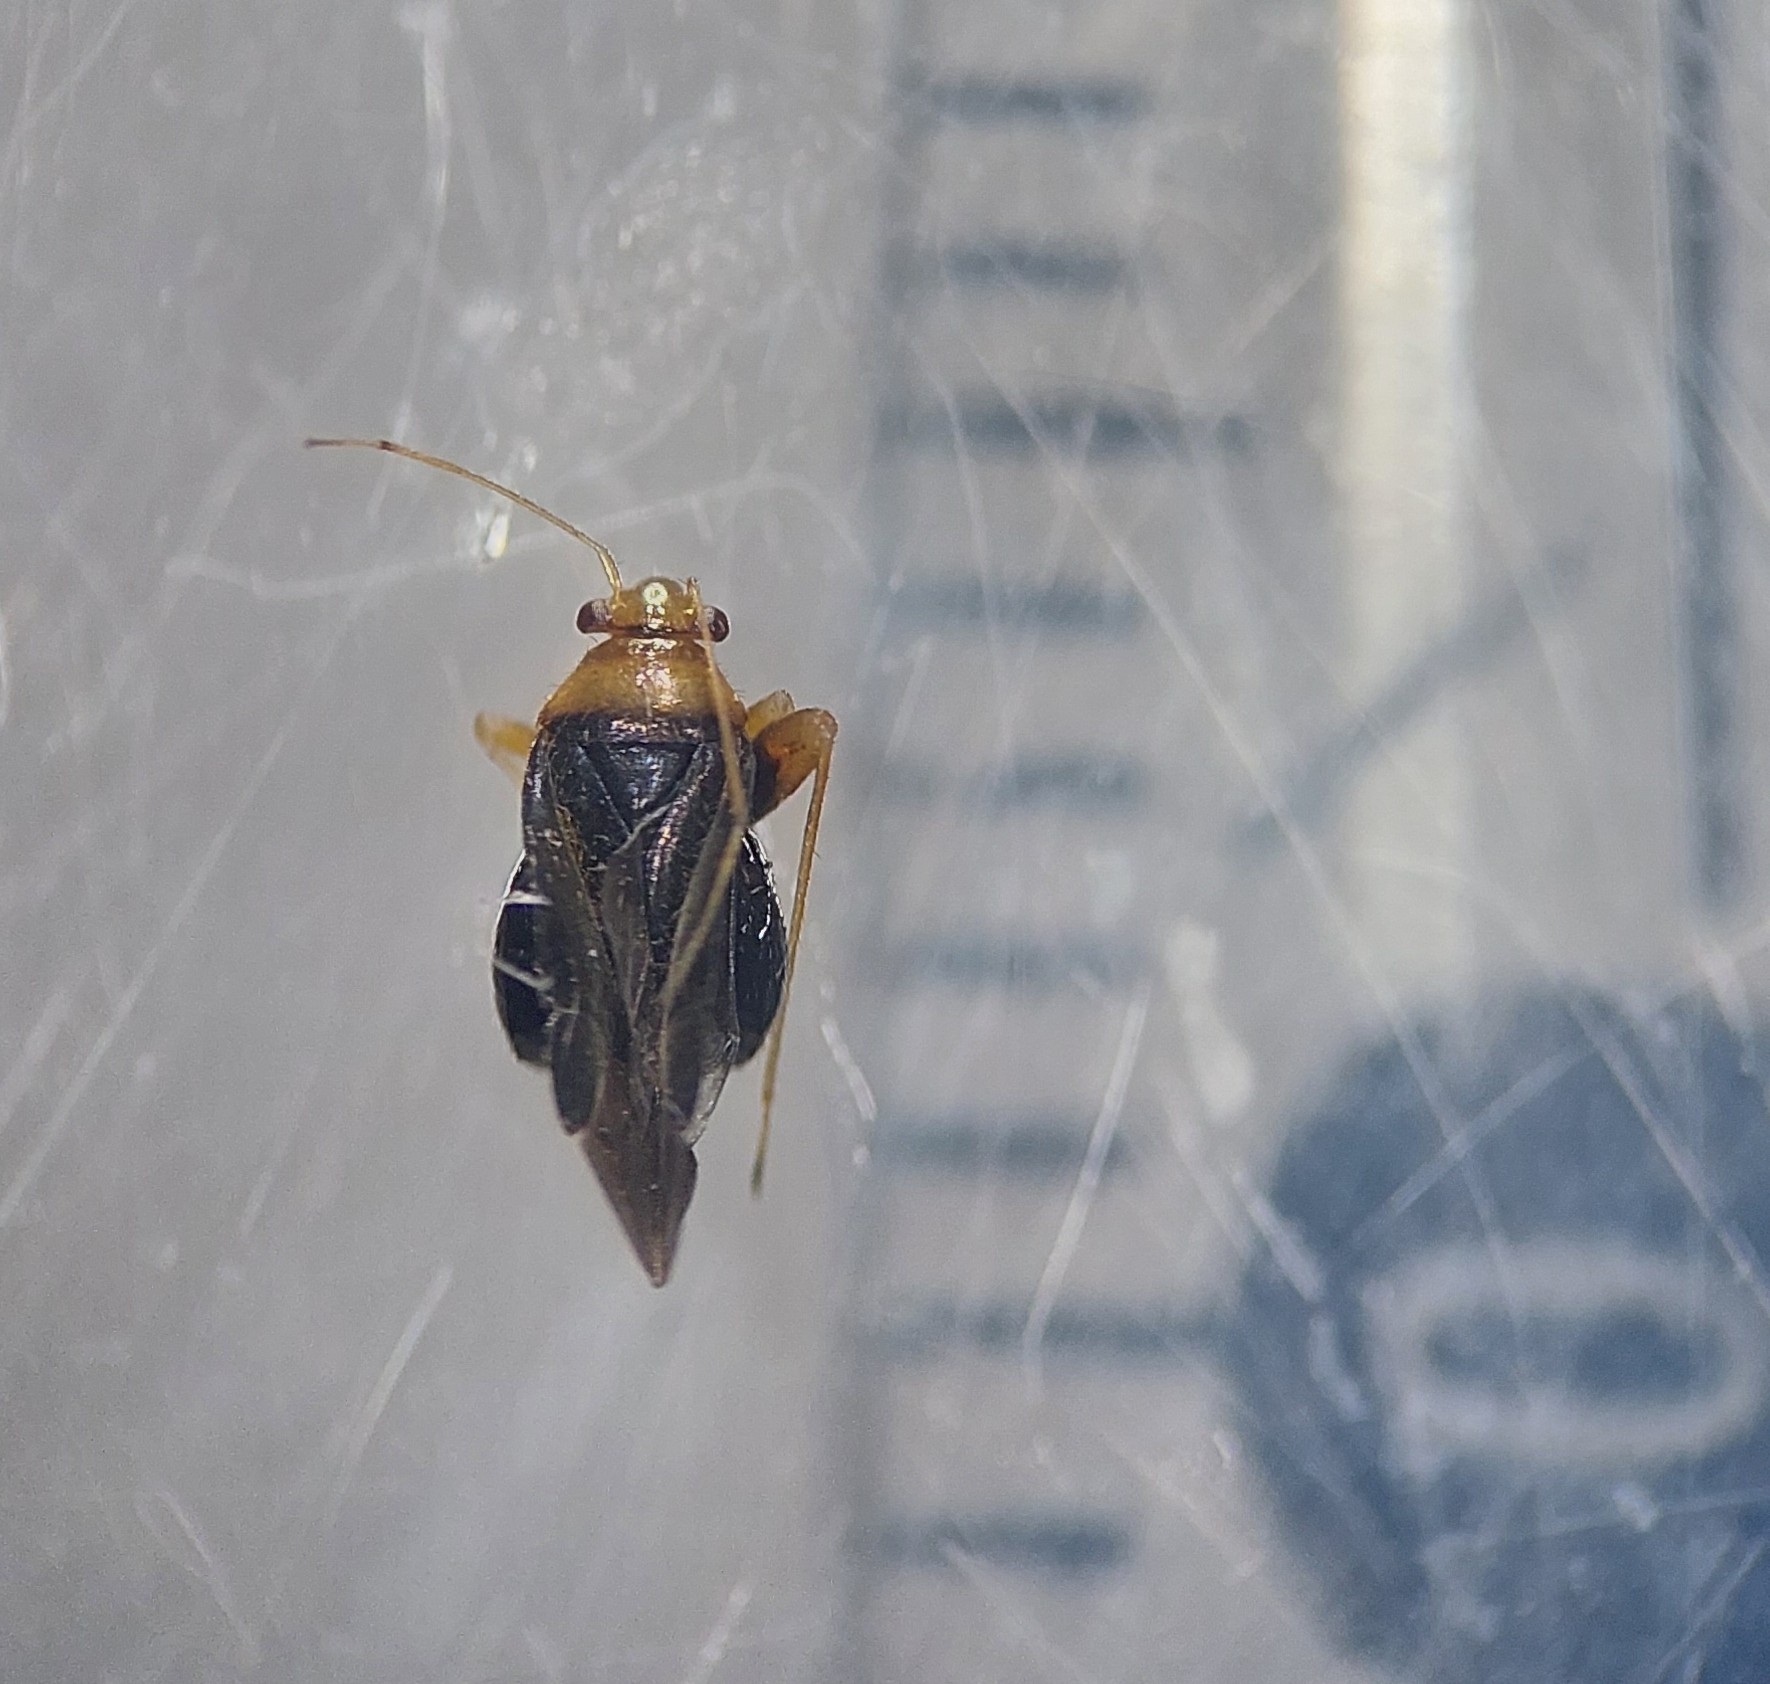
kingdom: Animalia
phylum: Arthropoda
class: Insecta
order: Hemiptera
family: Miridae
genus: Halticus
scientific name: Halticus luteicollis
